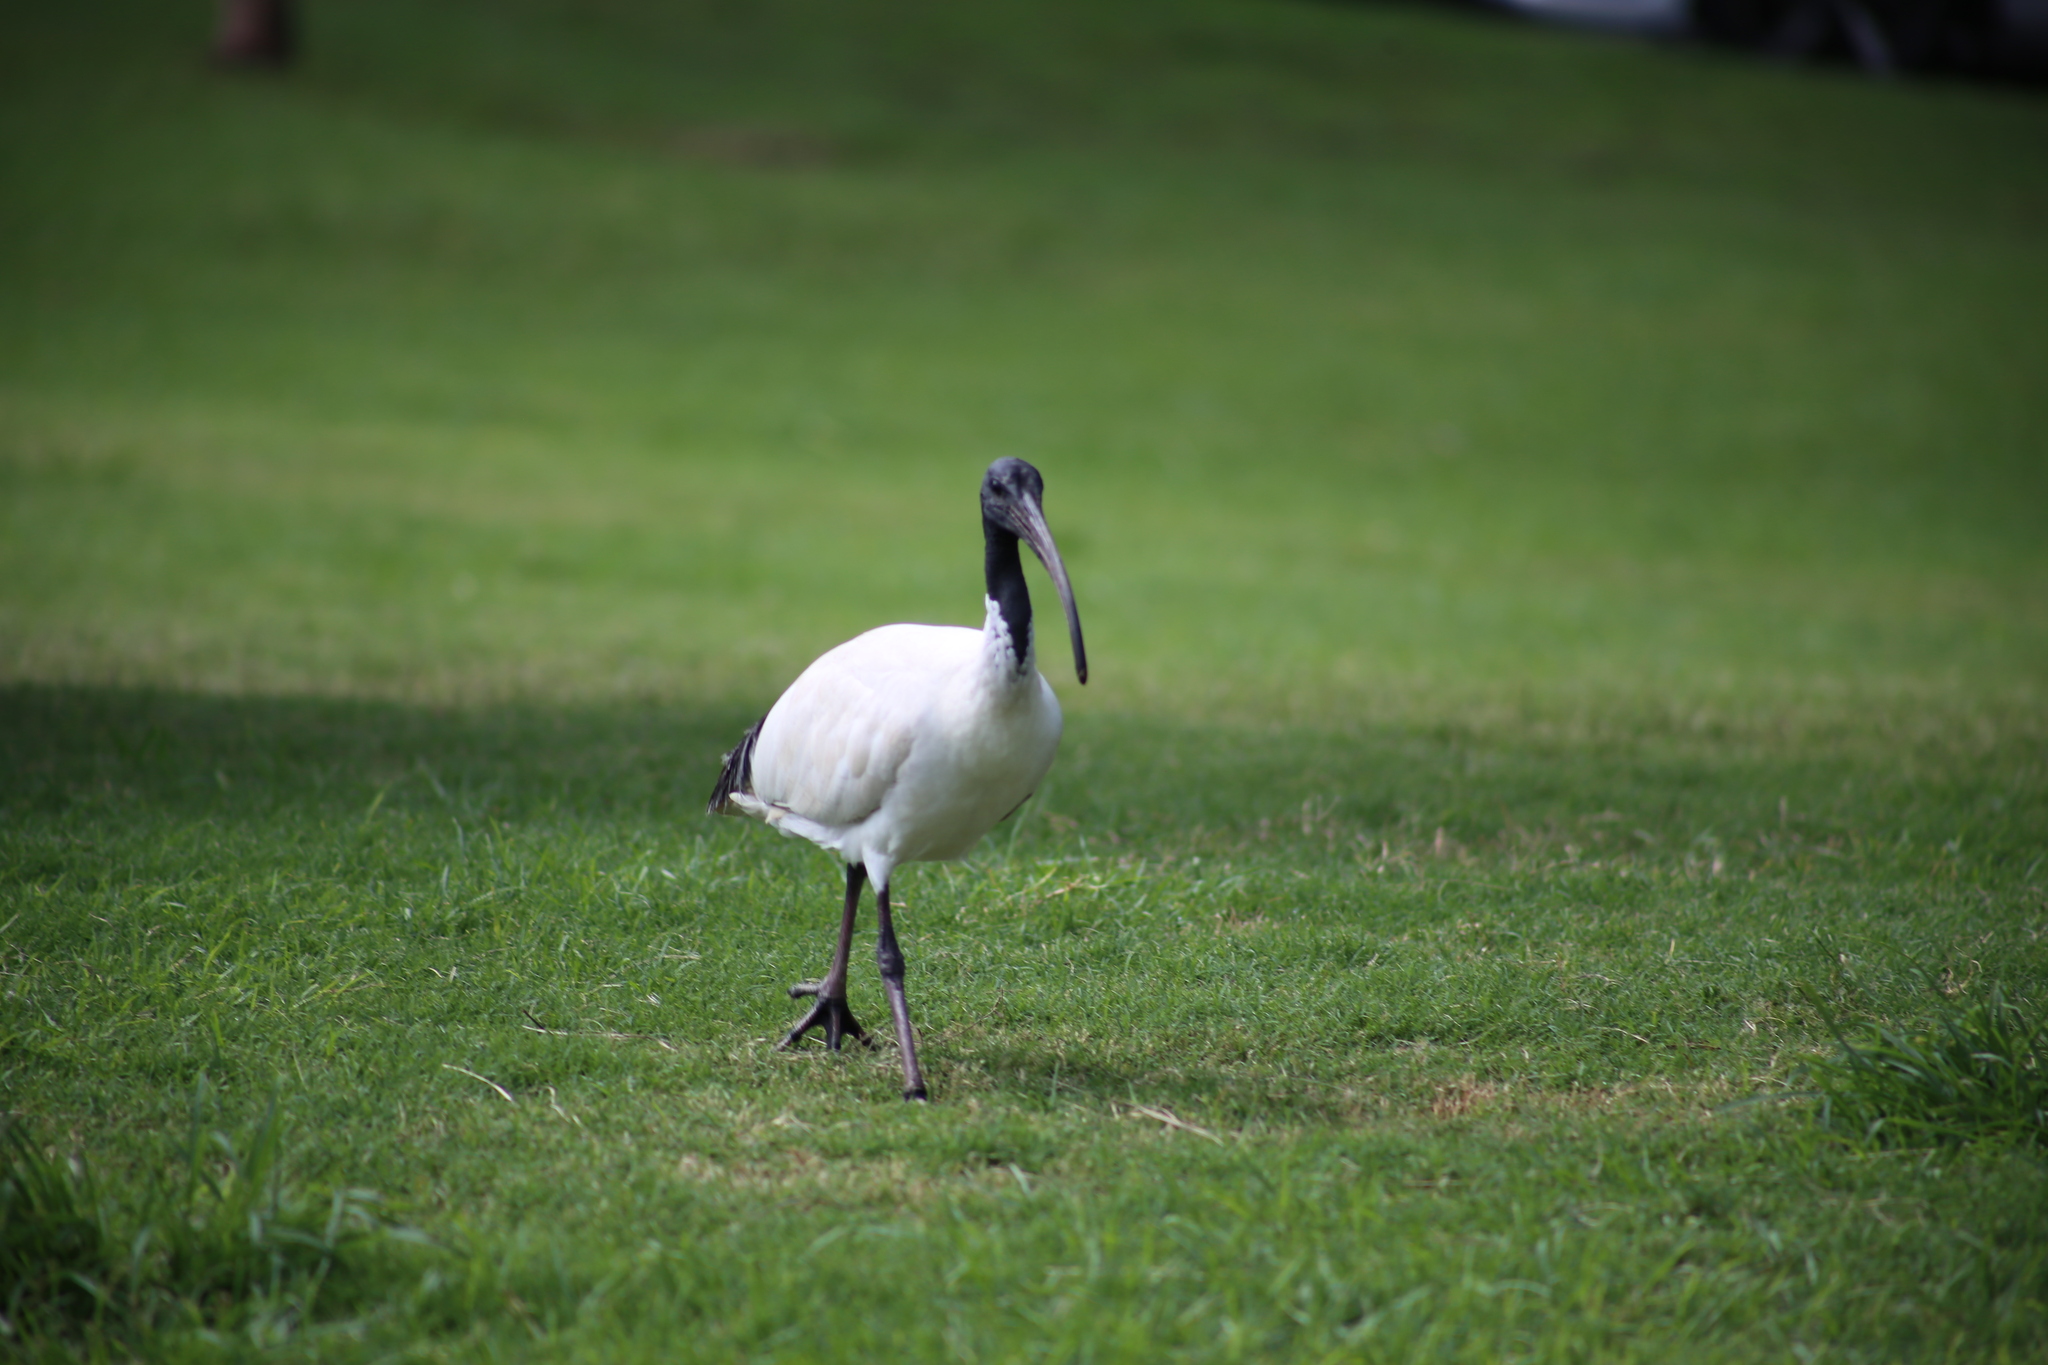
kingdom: Animalia
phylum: Chordata
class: Aves
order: Pelecaniformes
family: Threskiornithidae
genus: Threskiornis
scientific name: Threskiornis molucca
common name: Australian white ibis
